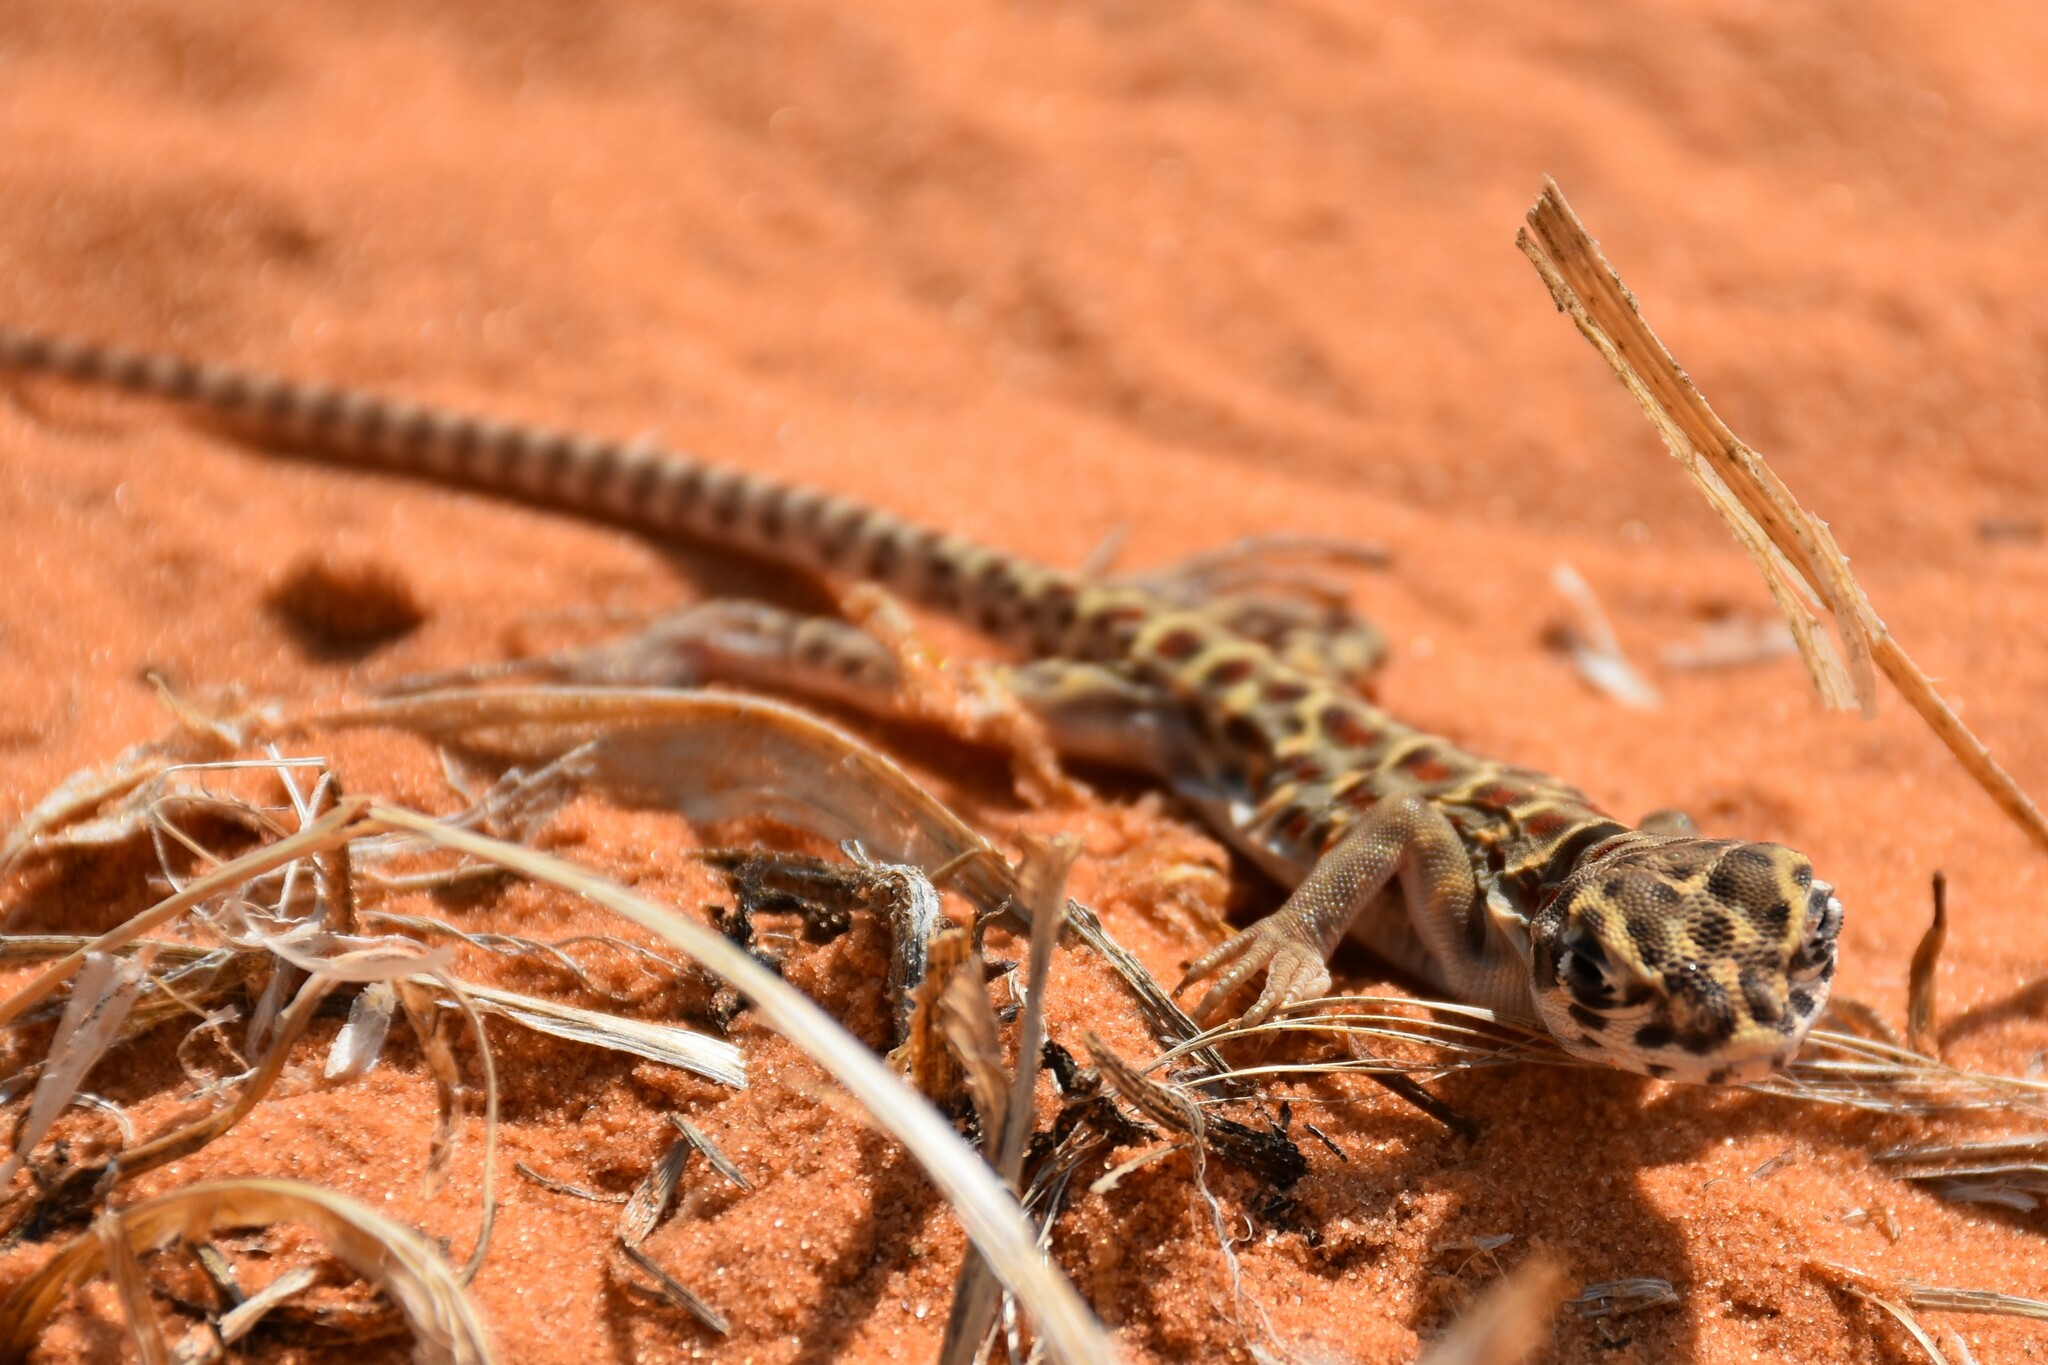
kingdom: Animalia
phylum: Chordata
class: Squamata
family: Crotaphytidae
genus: Gambelia
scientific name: Gambelia wislizenii
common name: Longnose leopard lizard
